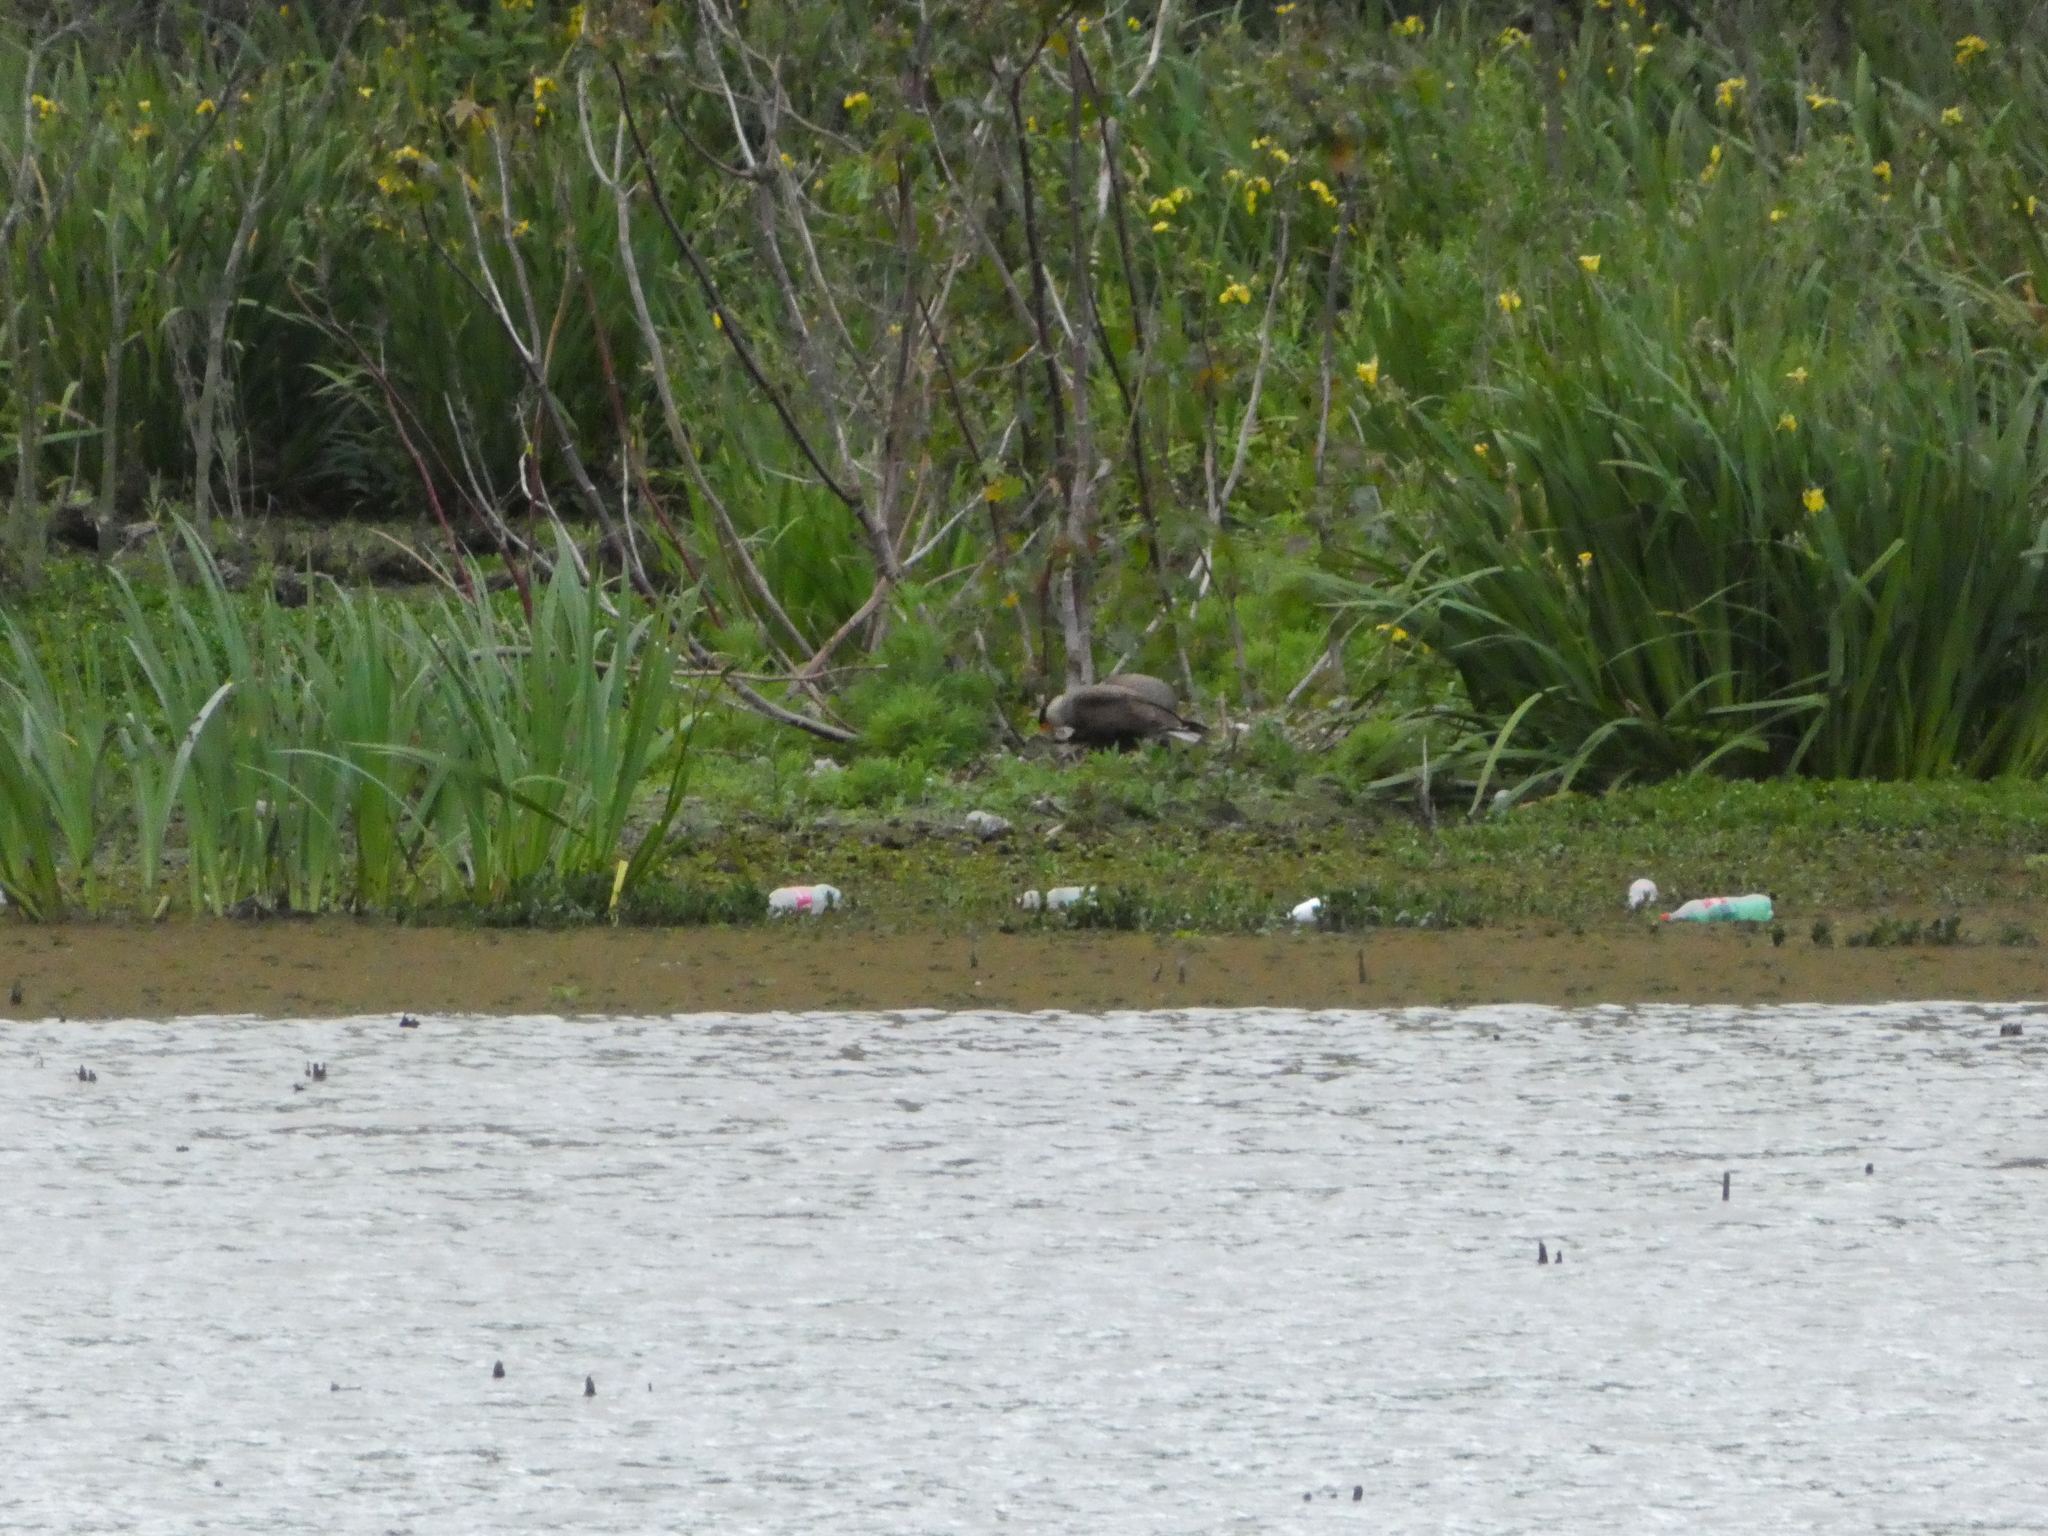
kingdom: Animalia
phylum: Chordata
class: Aves
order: Falconiformes
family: Falconidae
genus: Caracara
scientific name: Caracara plancus
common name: Southern caracara
